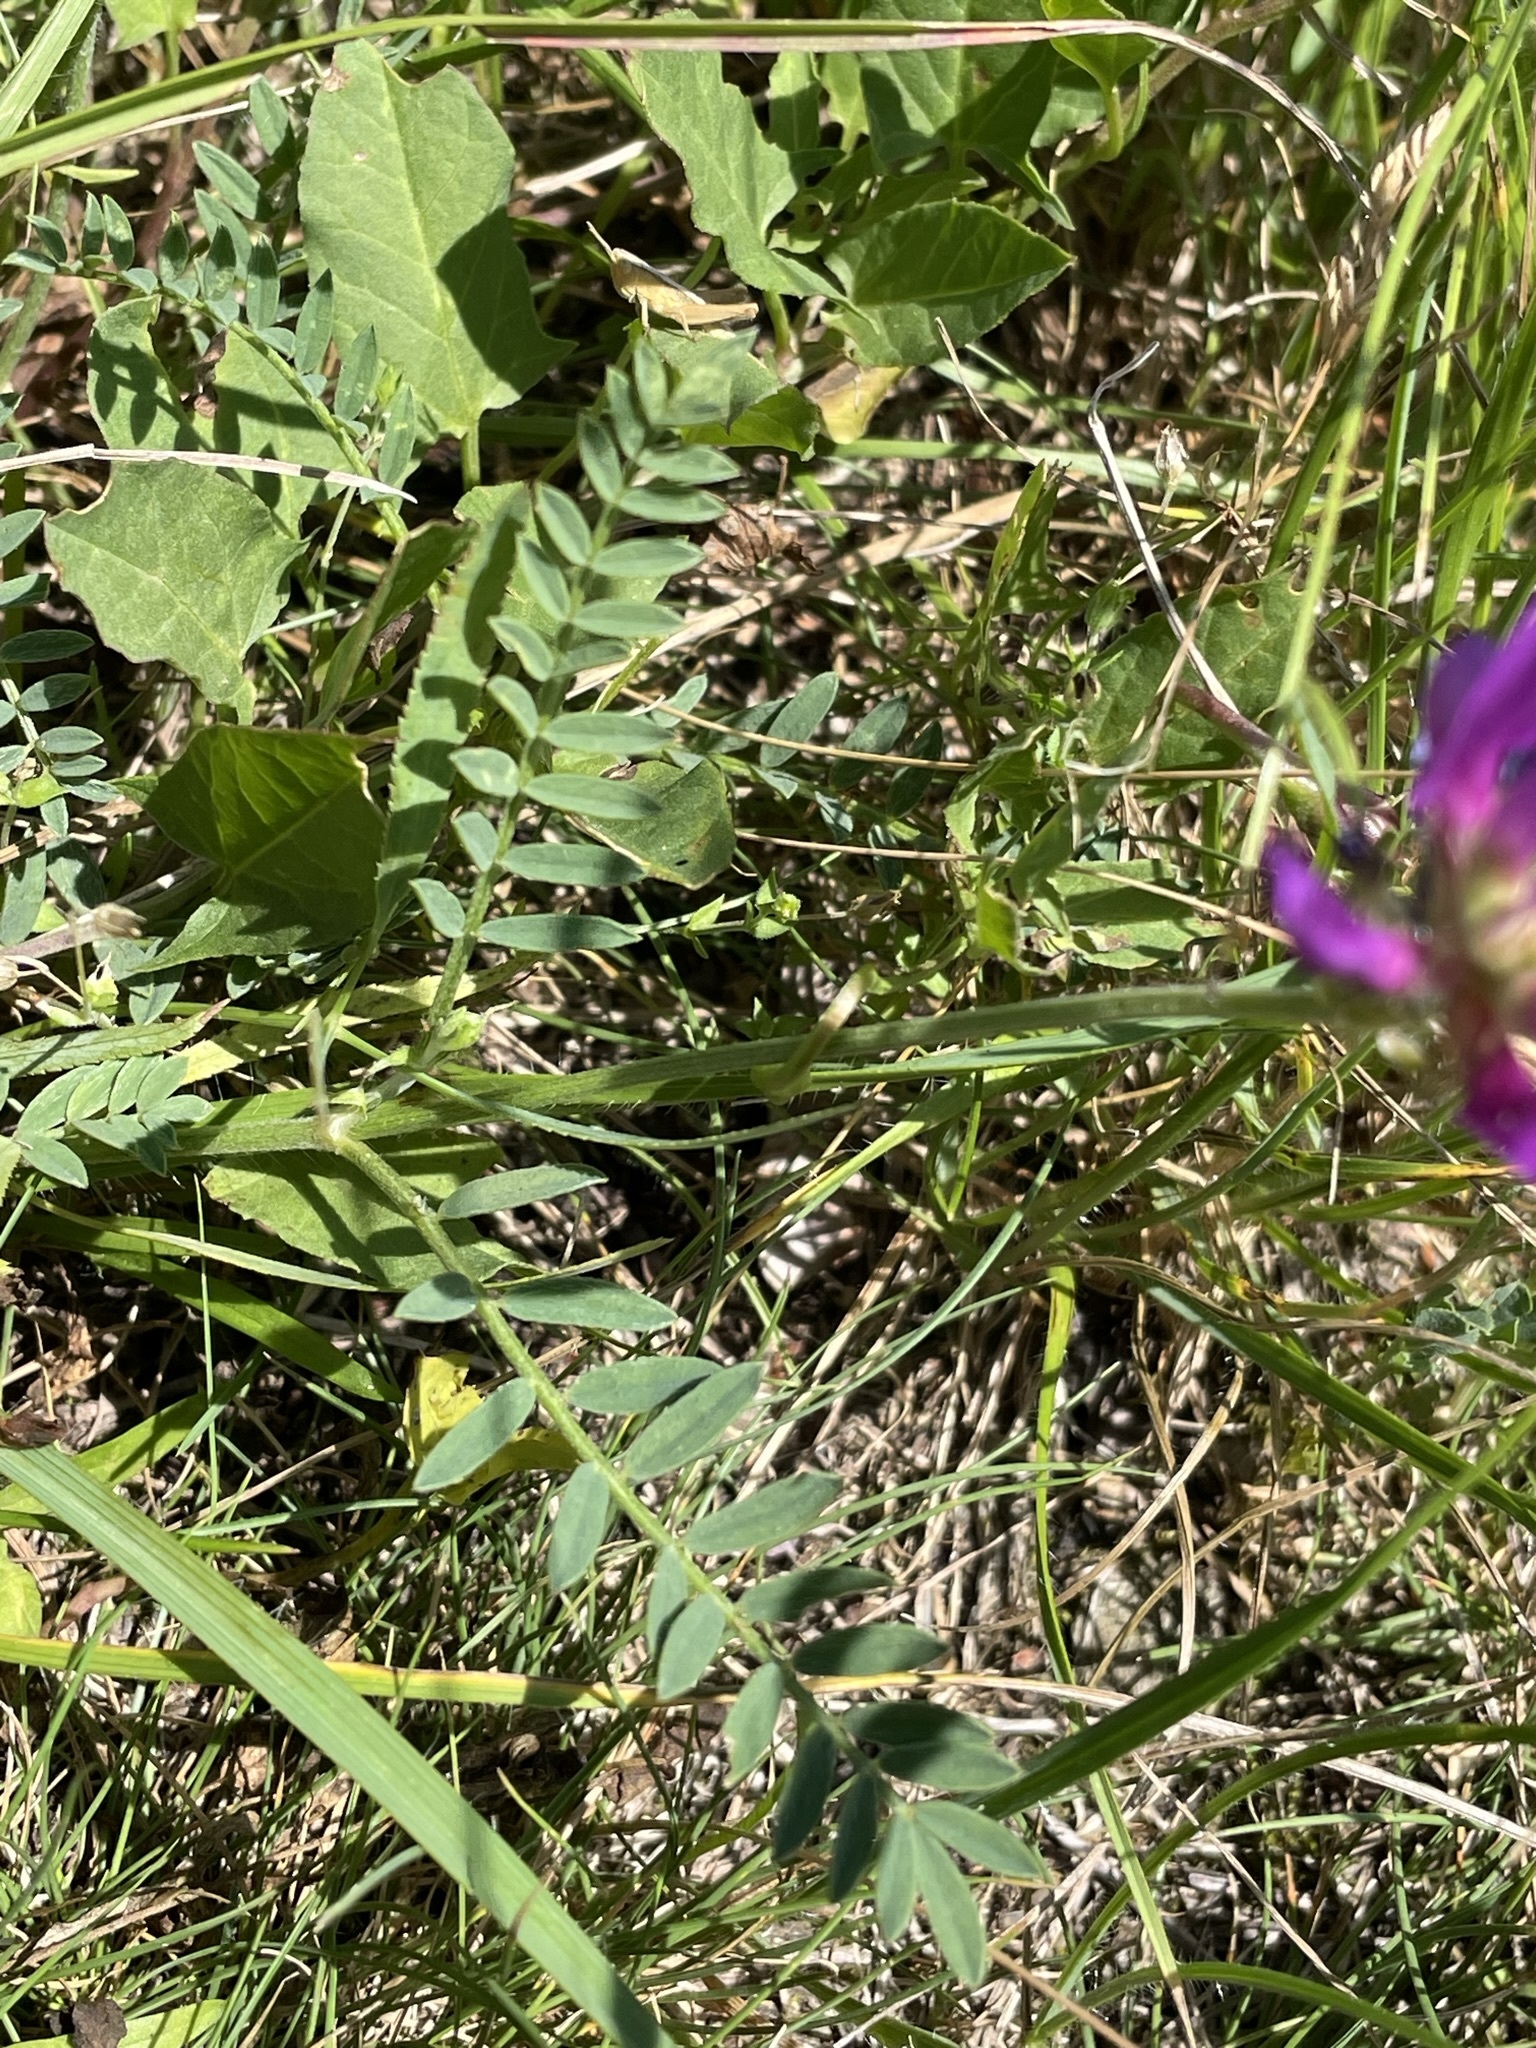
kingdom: Plantae
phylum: Tracheophyta
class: Magnoliopsida
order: Fabales
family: Fabaceae
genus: Astragalus
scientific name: Astragalus onobrychis
